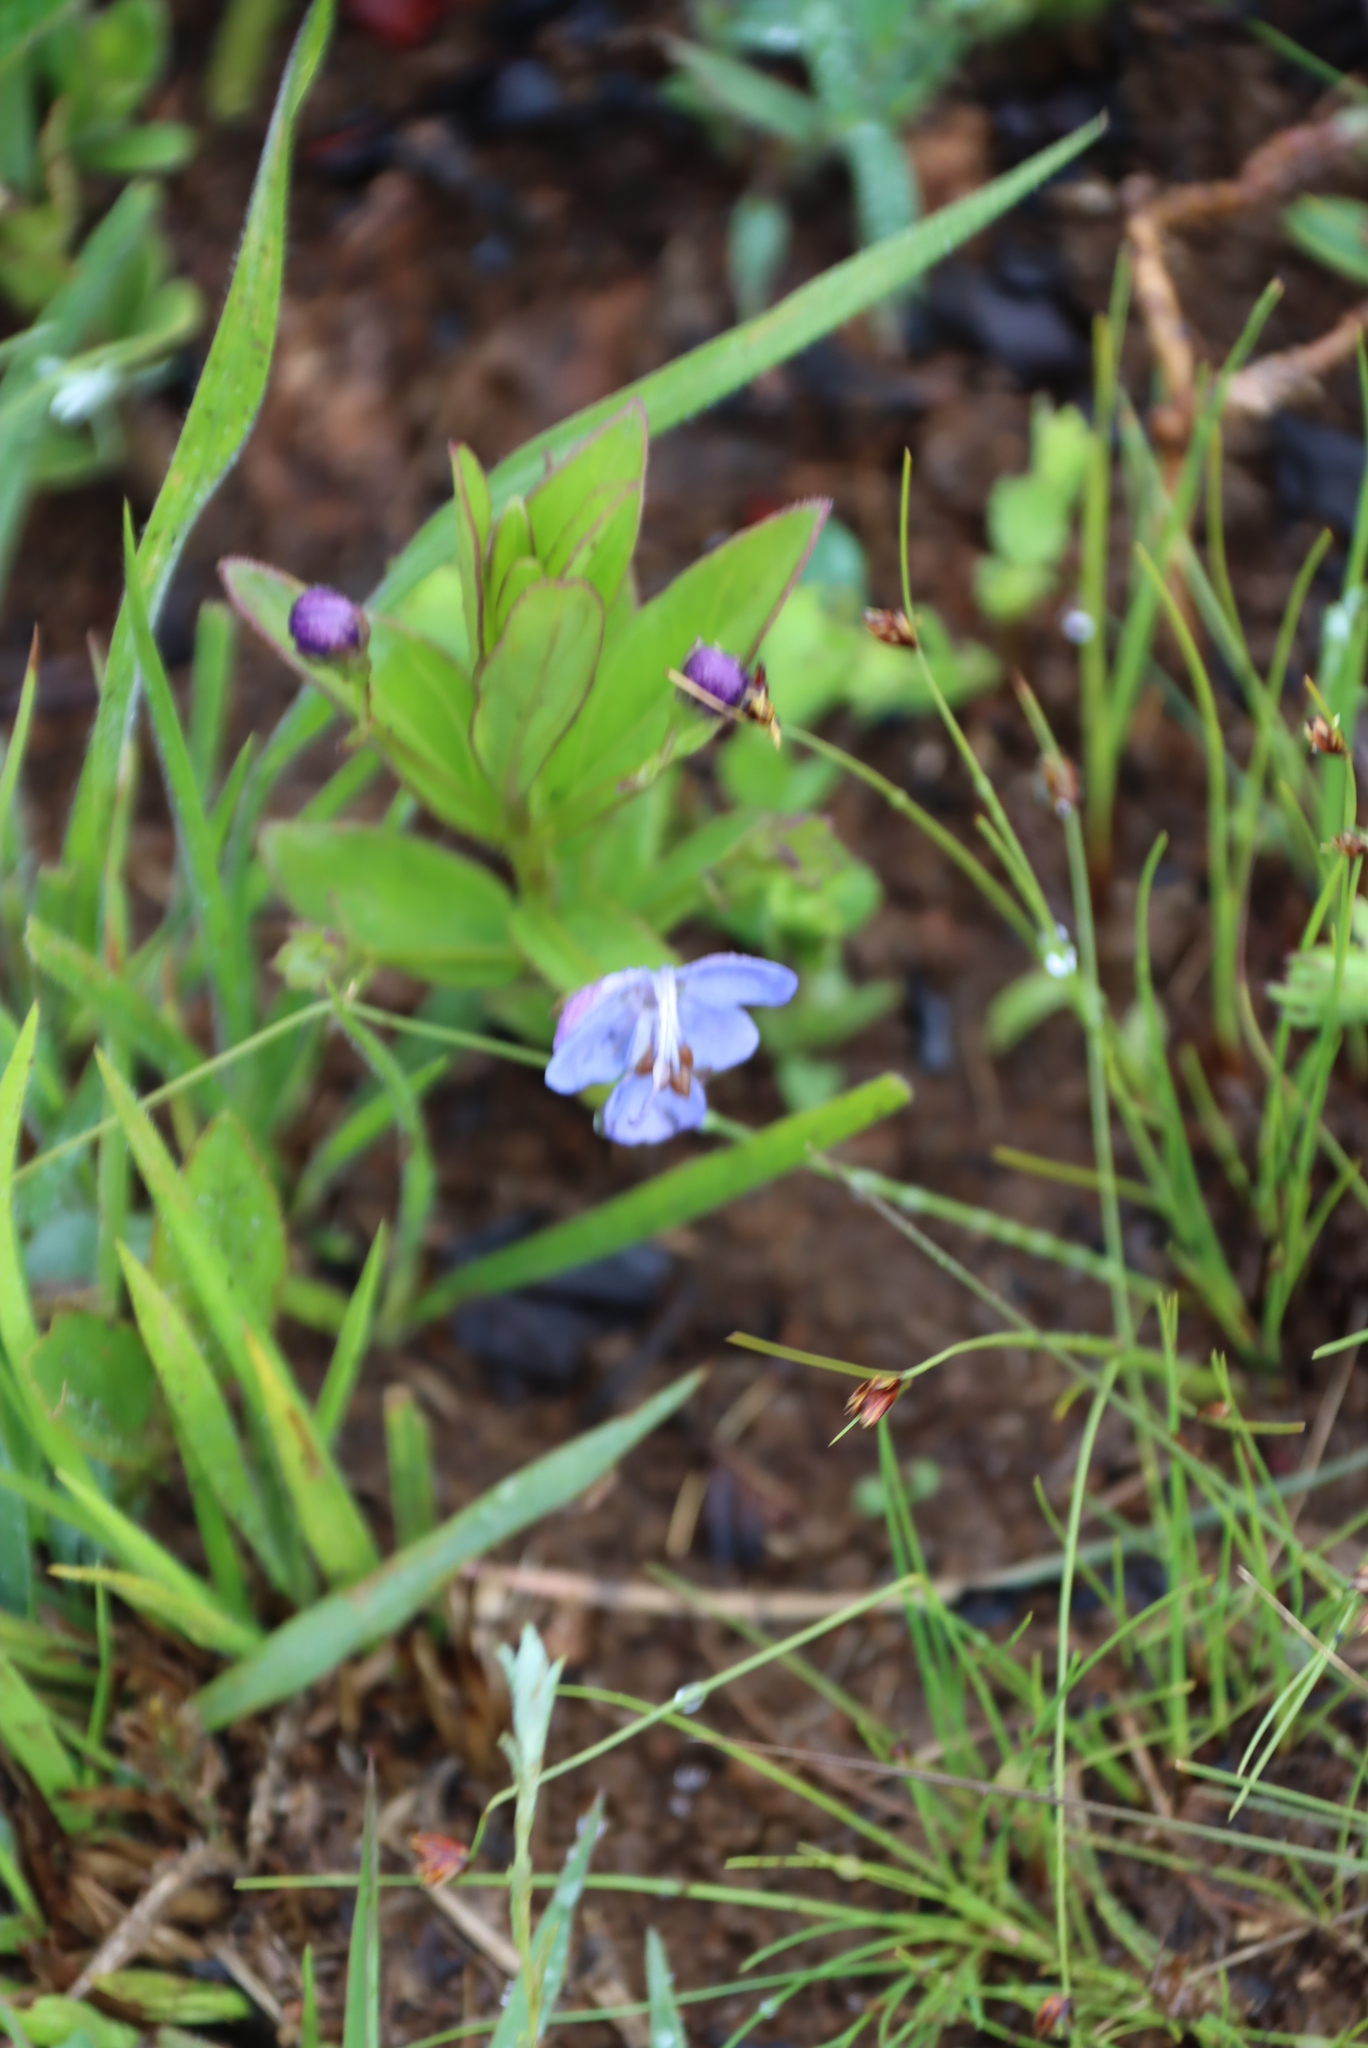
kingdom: Plantae
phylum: Tracheophyta
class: Magnoliopsida
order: Lamiales
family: Lamiaceae
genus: Rotheca
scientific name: Rotheca hirsuta
